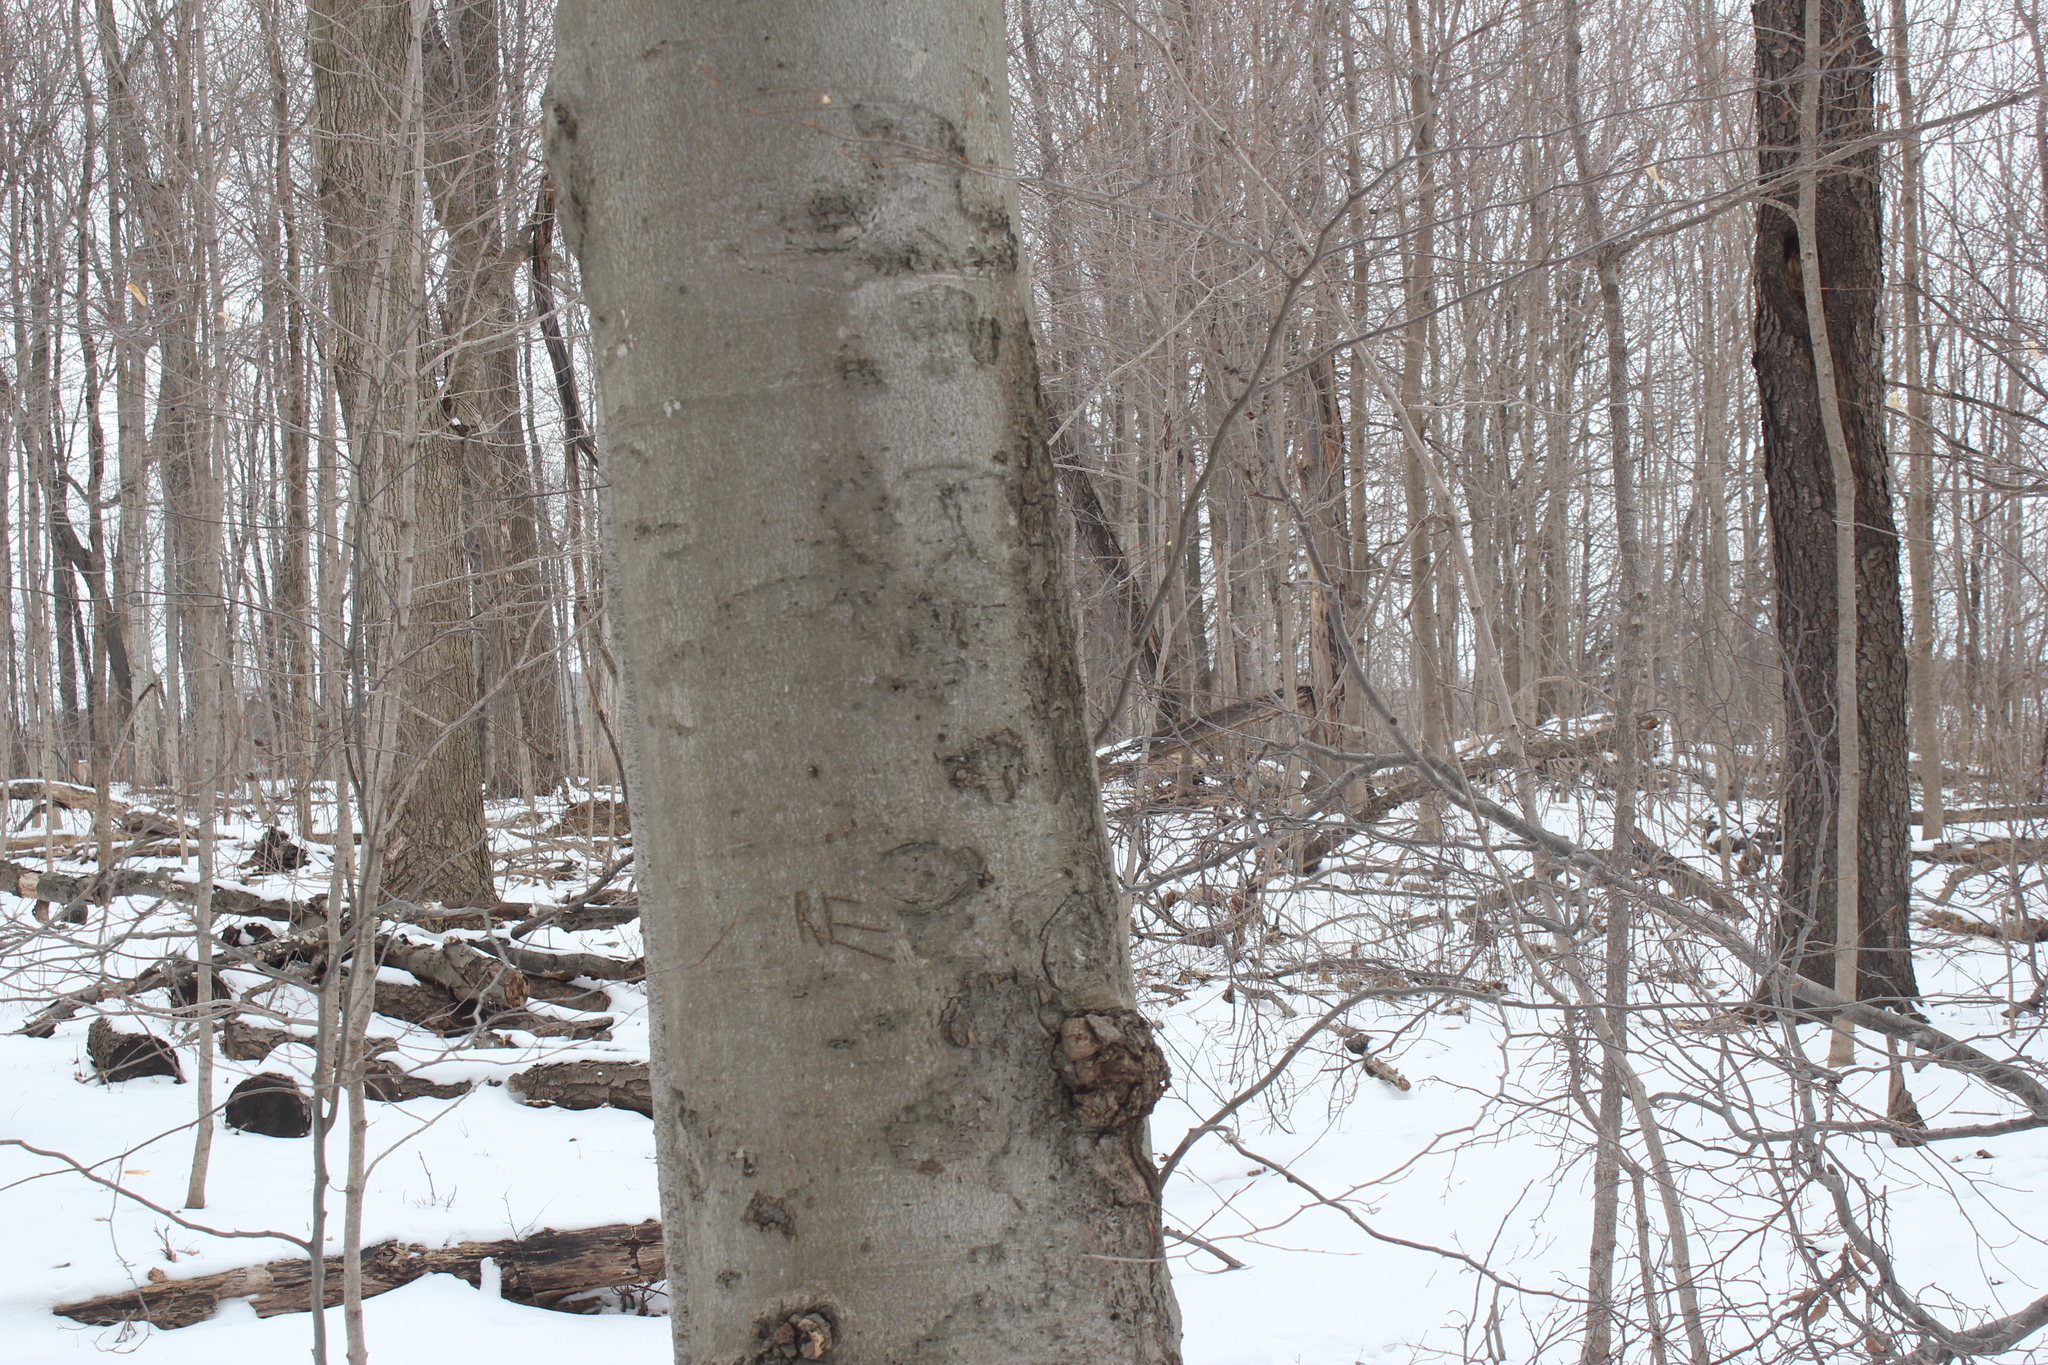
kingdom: Fungi
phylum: Ascomycota
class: Sordariomycetes
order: Hypocreales
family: Nectriaceae
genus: Neonectria
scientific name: Neonectria faginata
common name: Beech bark canker
